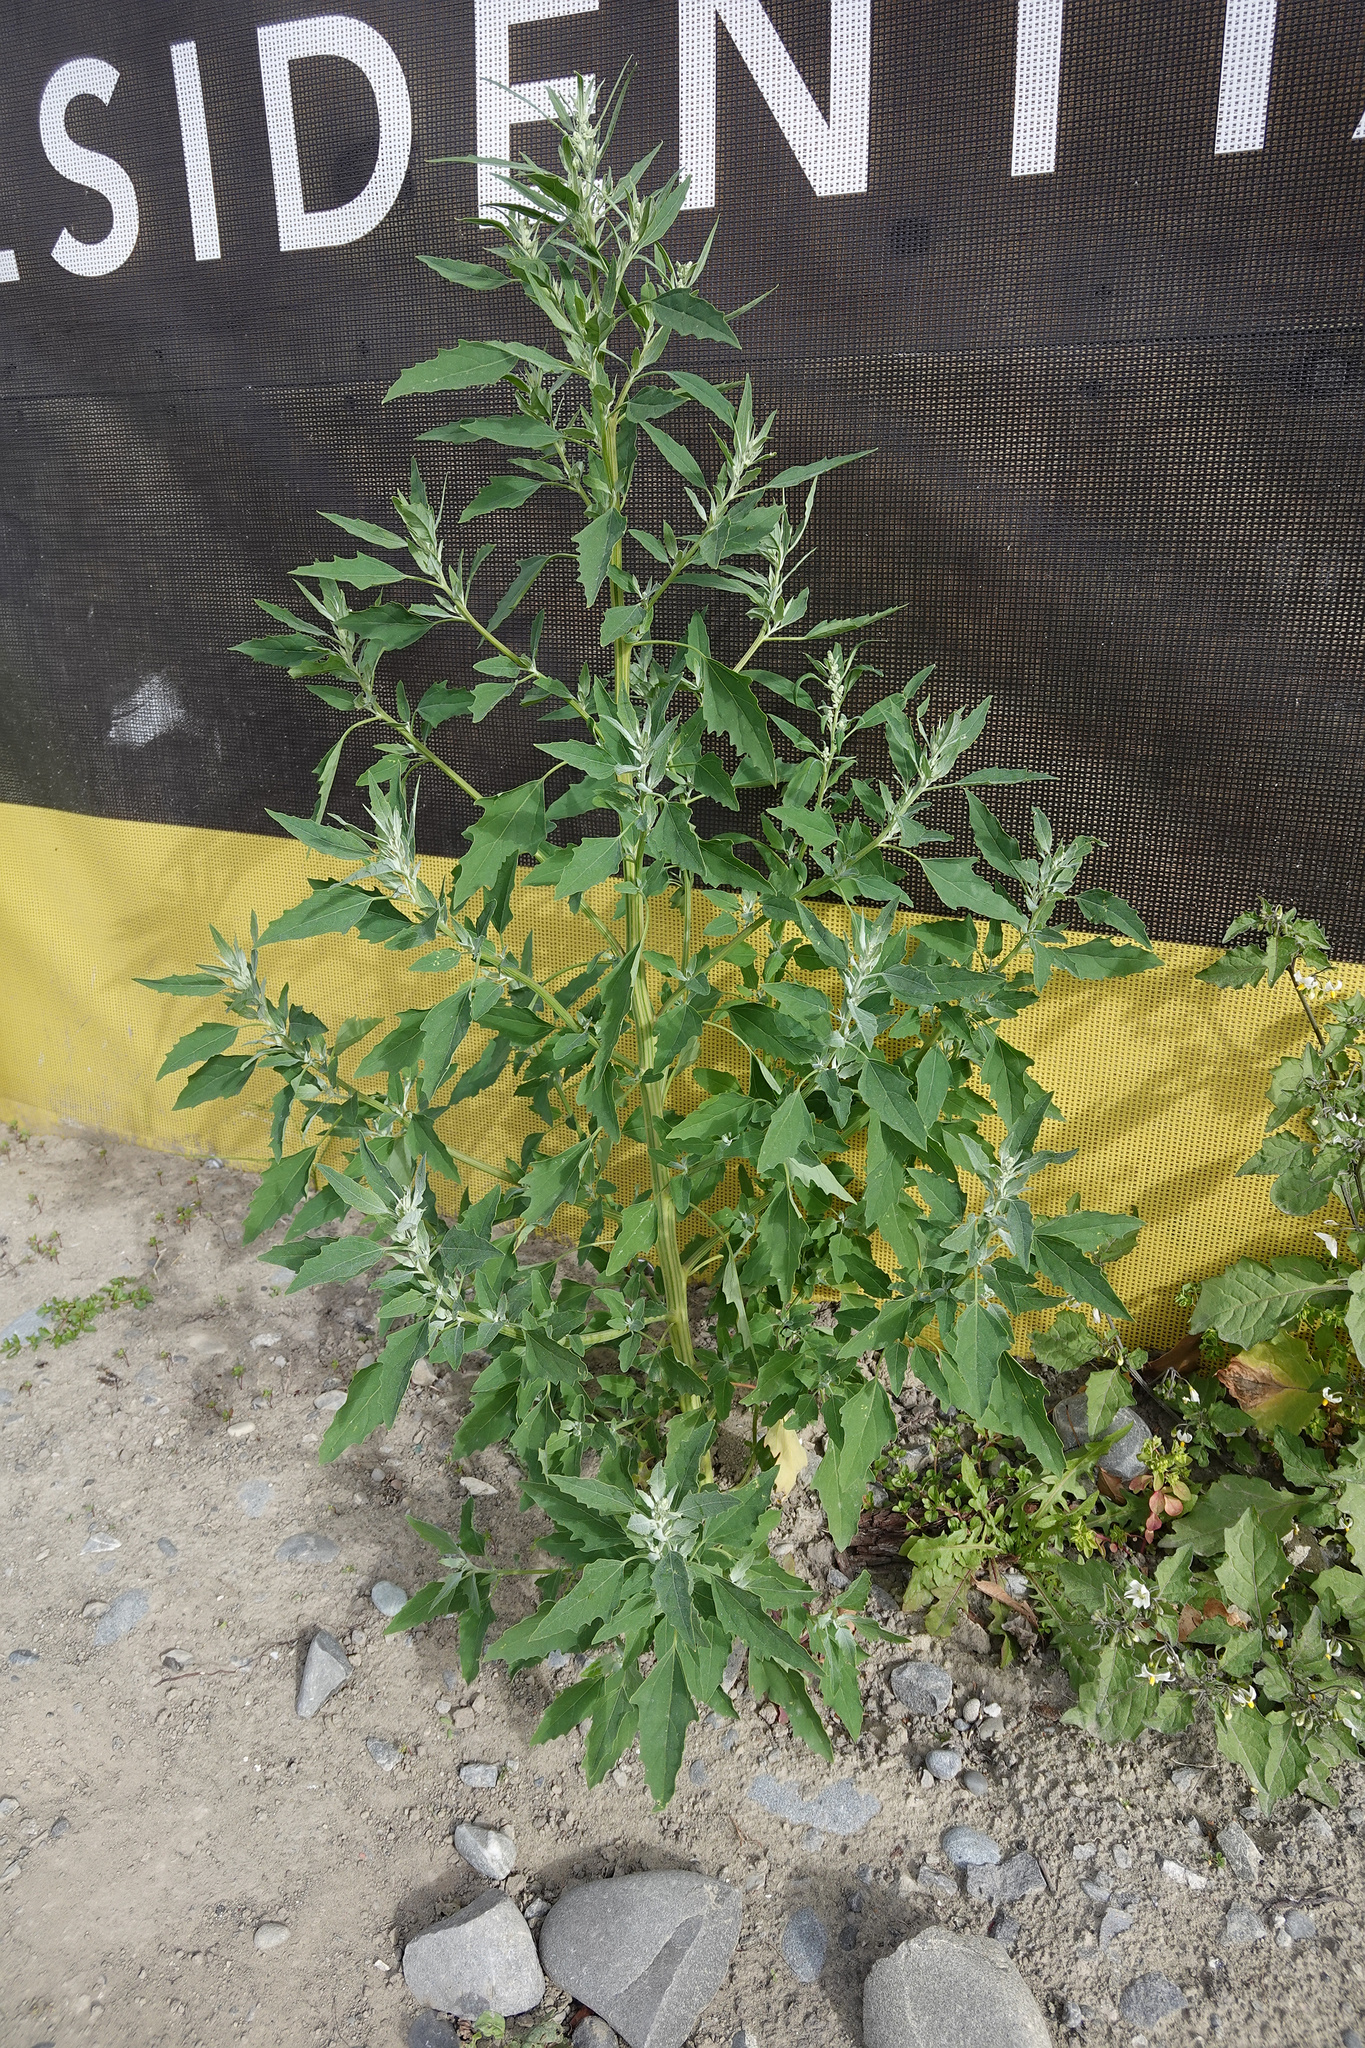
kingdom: Plantae
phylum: Tracheophyta
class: Magnoliopsida
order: Caryophyllales
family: Amaranthaceae
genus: Chenopodium
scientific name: Chenopodium album
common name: Fat-hen
